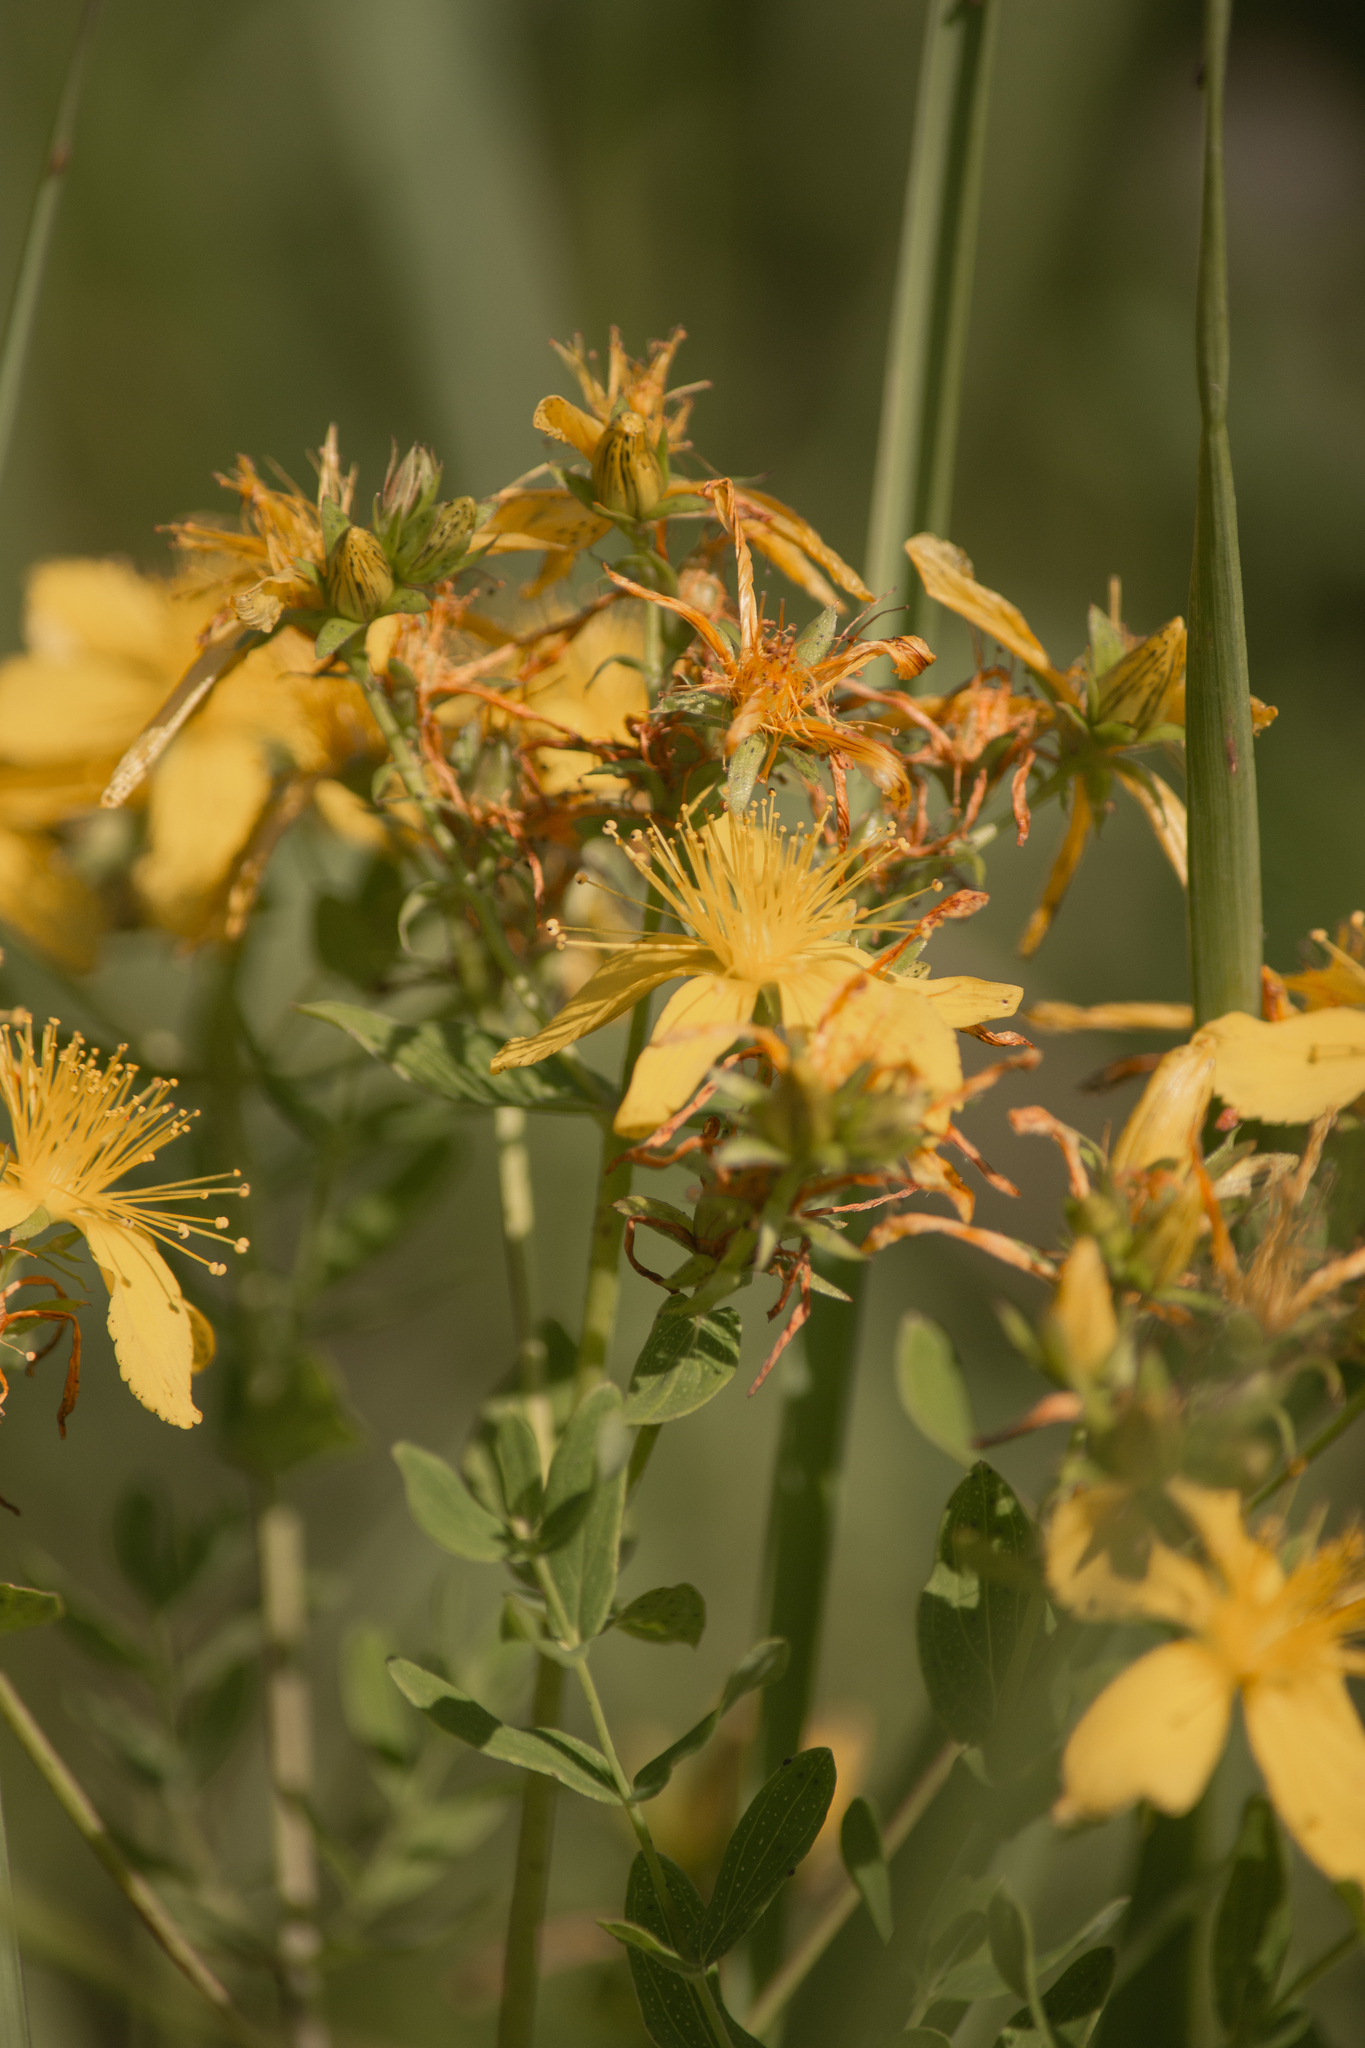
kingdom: Plantae
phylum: Tracheophyta
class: Magnoliopsida
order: Malpighiales
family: Hypericaceae
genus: Hypericum
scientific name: Hypericum perforatum
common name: Common st. johnswort
